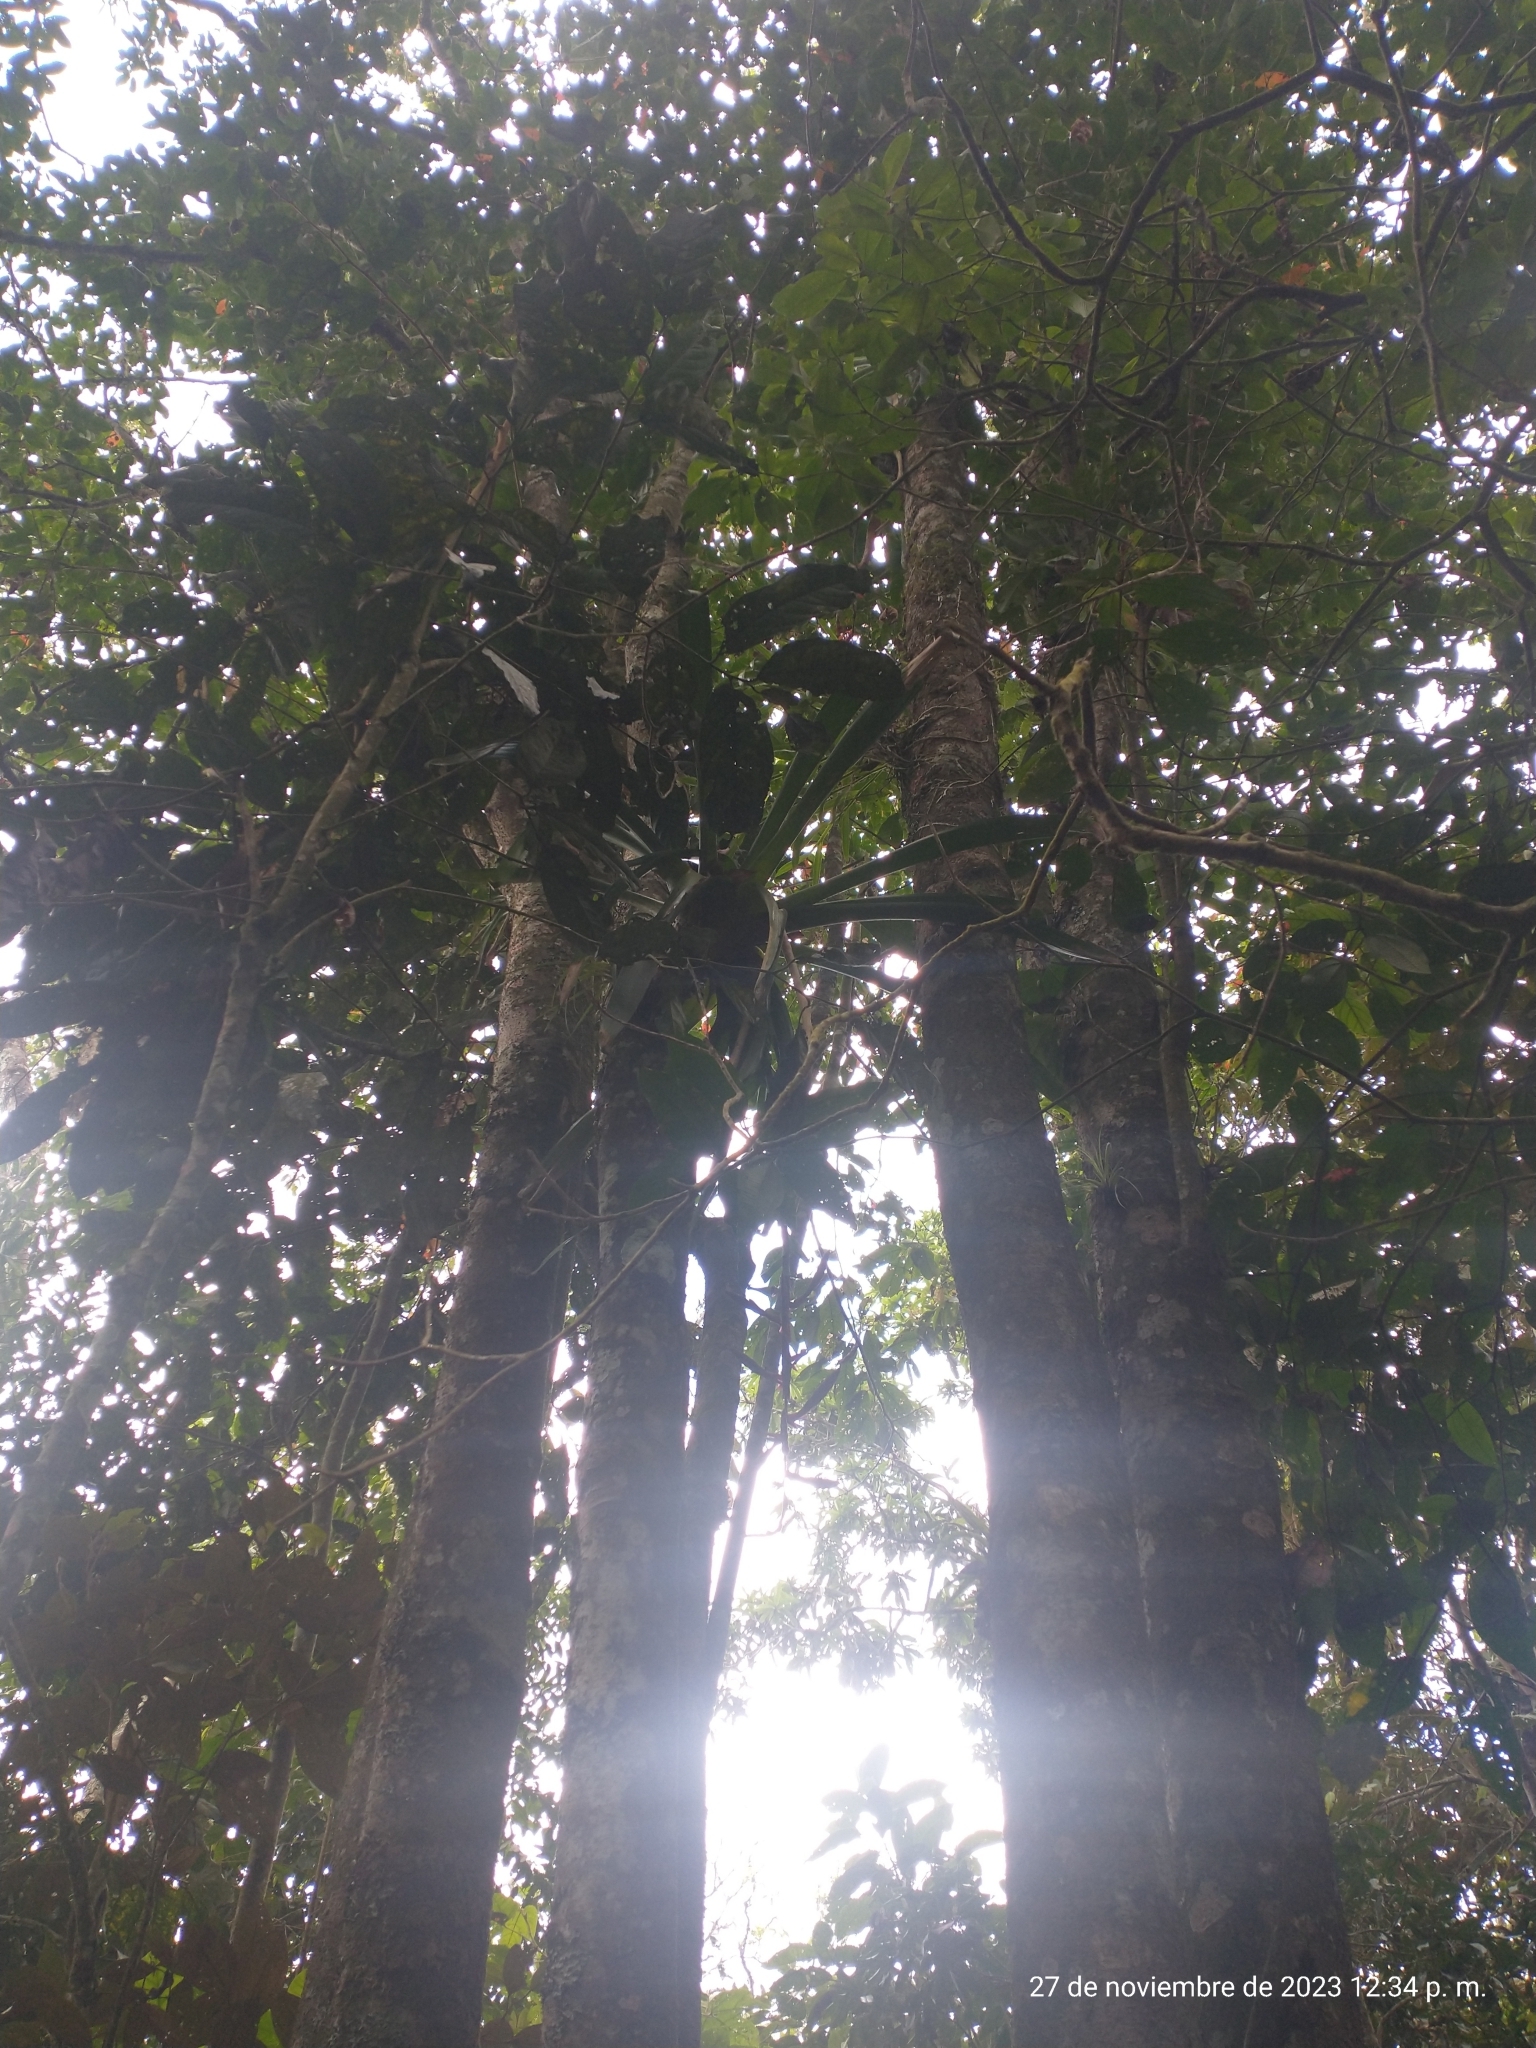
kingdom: Plantae
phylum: Tracheophyta
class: Magnoliopsida
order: Sapindales
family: Sapindaceae
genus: Billia
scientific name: Billia rosea
